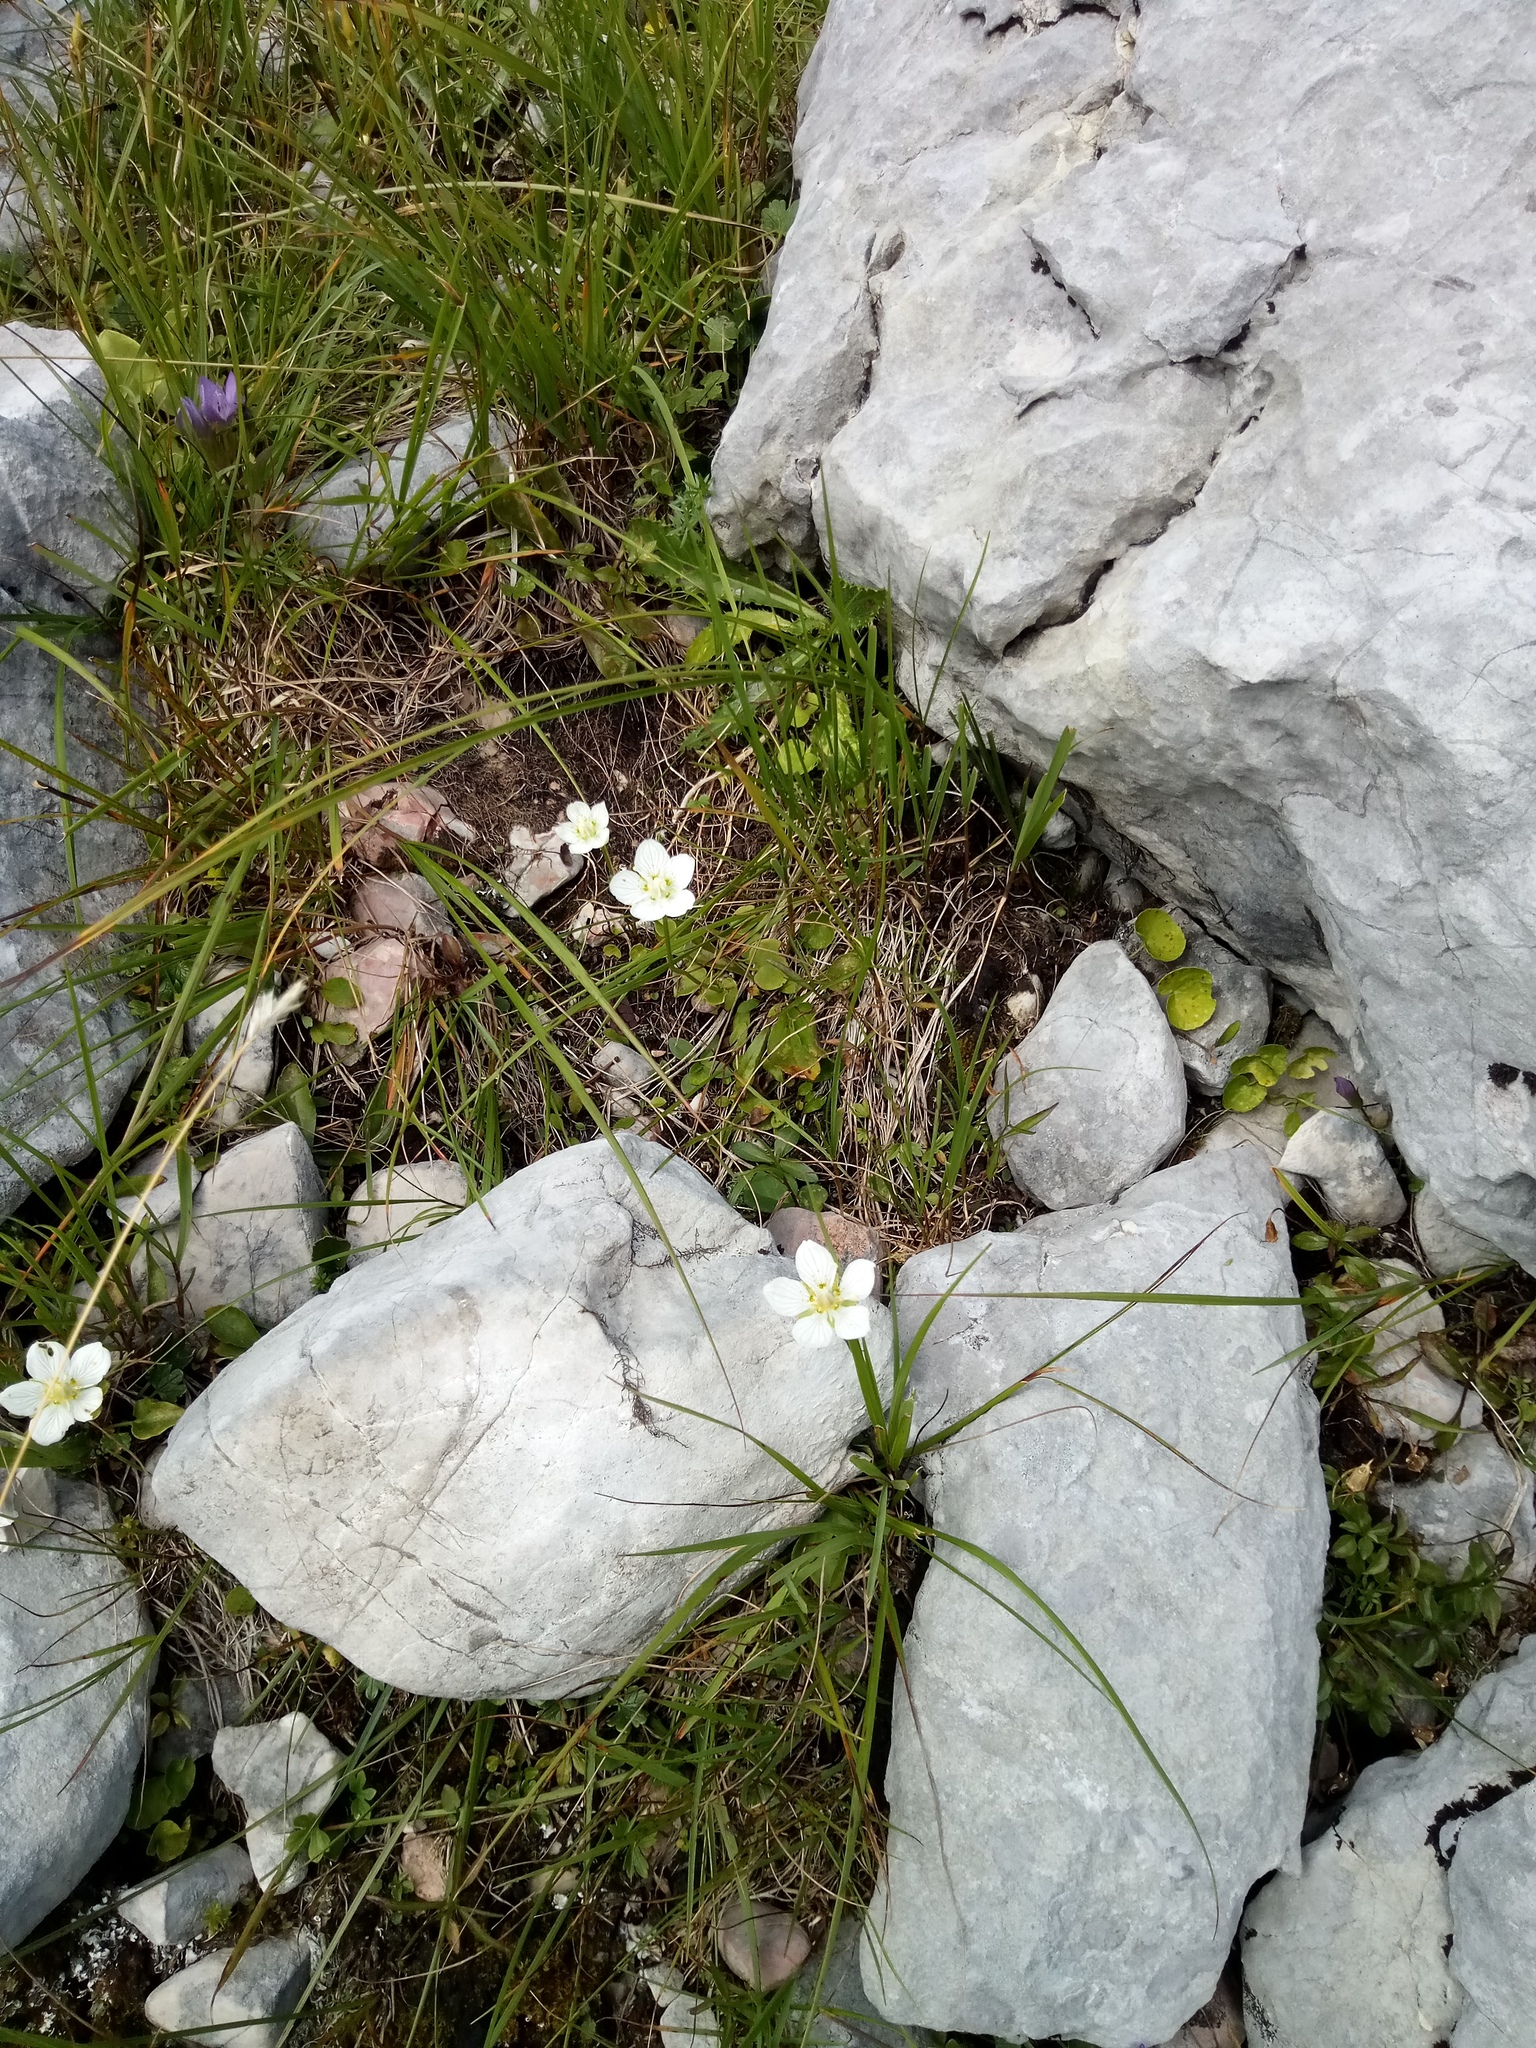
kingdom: Plantae
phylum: Tracheophyta
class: Magnoliopsida
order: Celastrales
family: Parnassiaceae
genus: Parnassia
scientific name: Parnassia palustris
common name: Grass-of-parnassus
